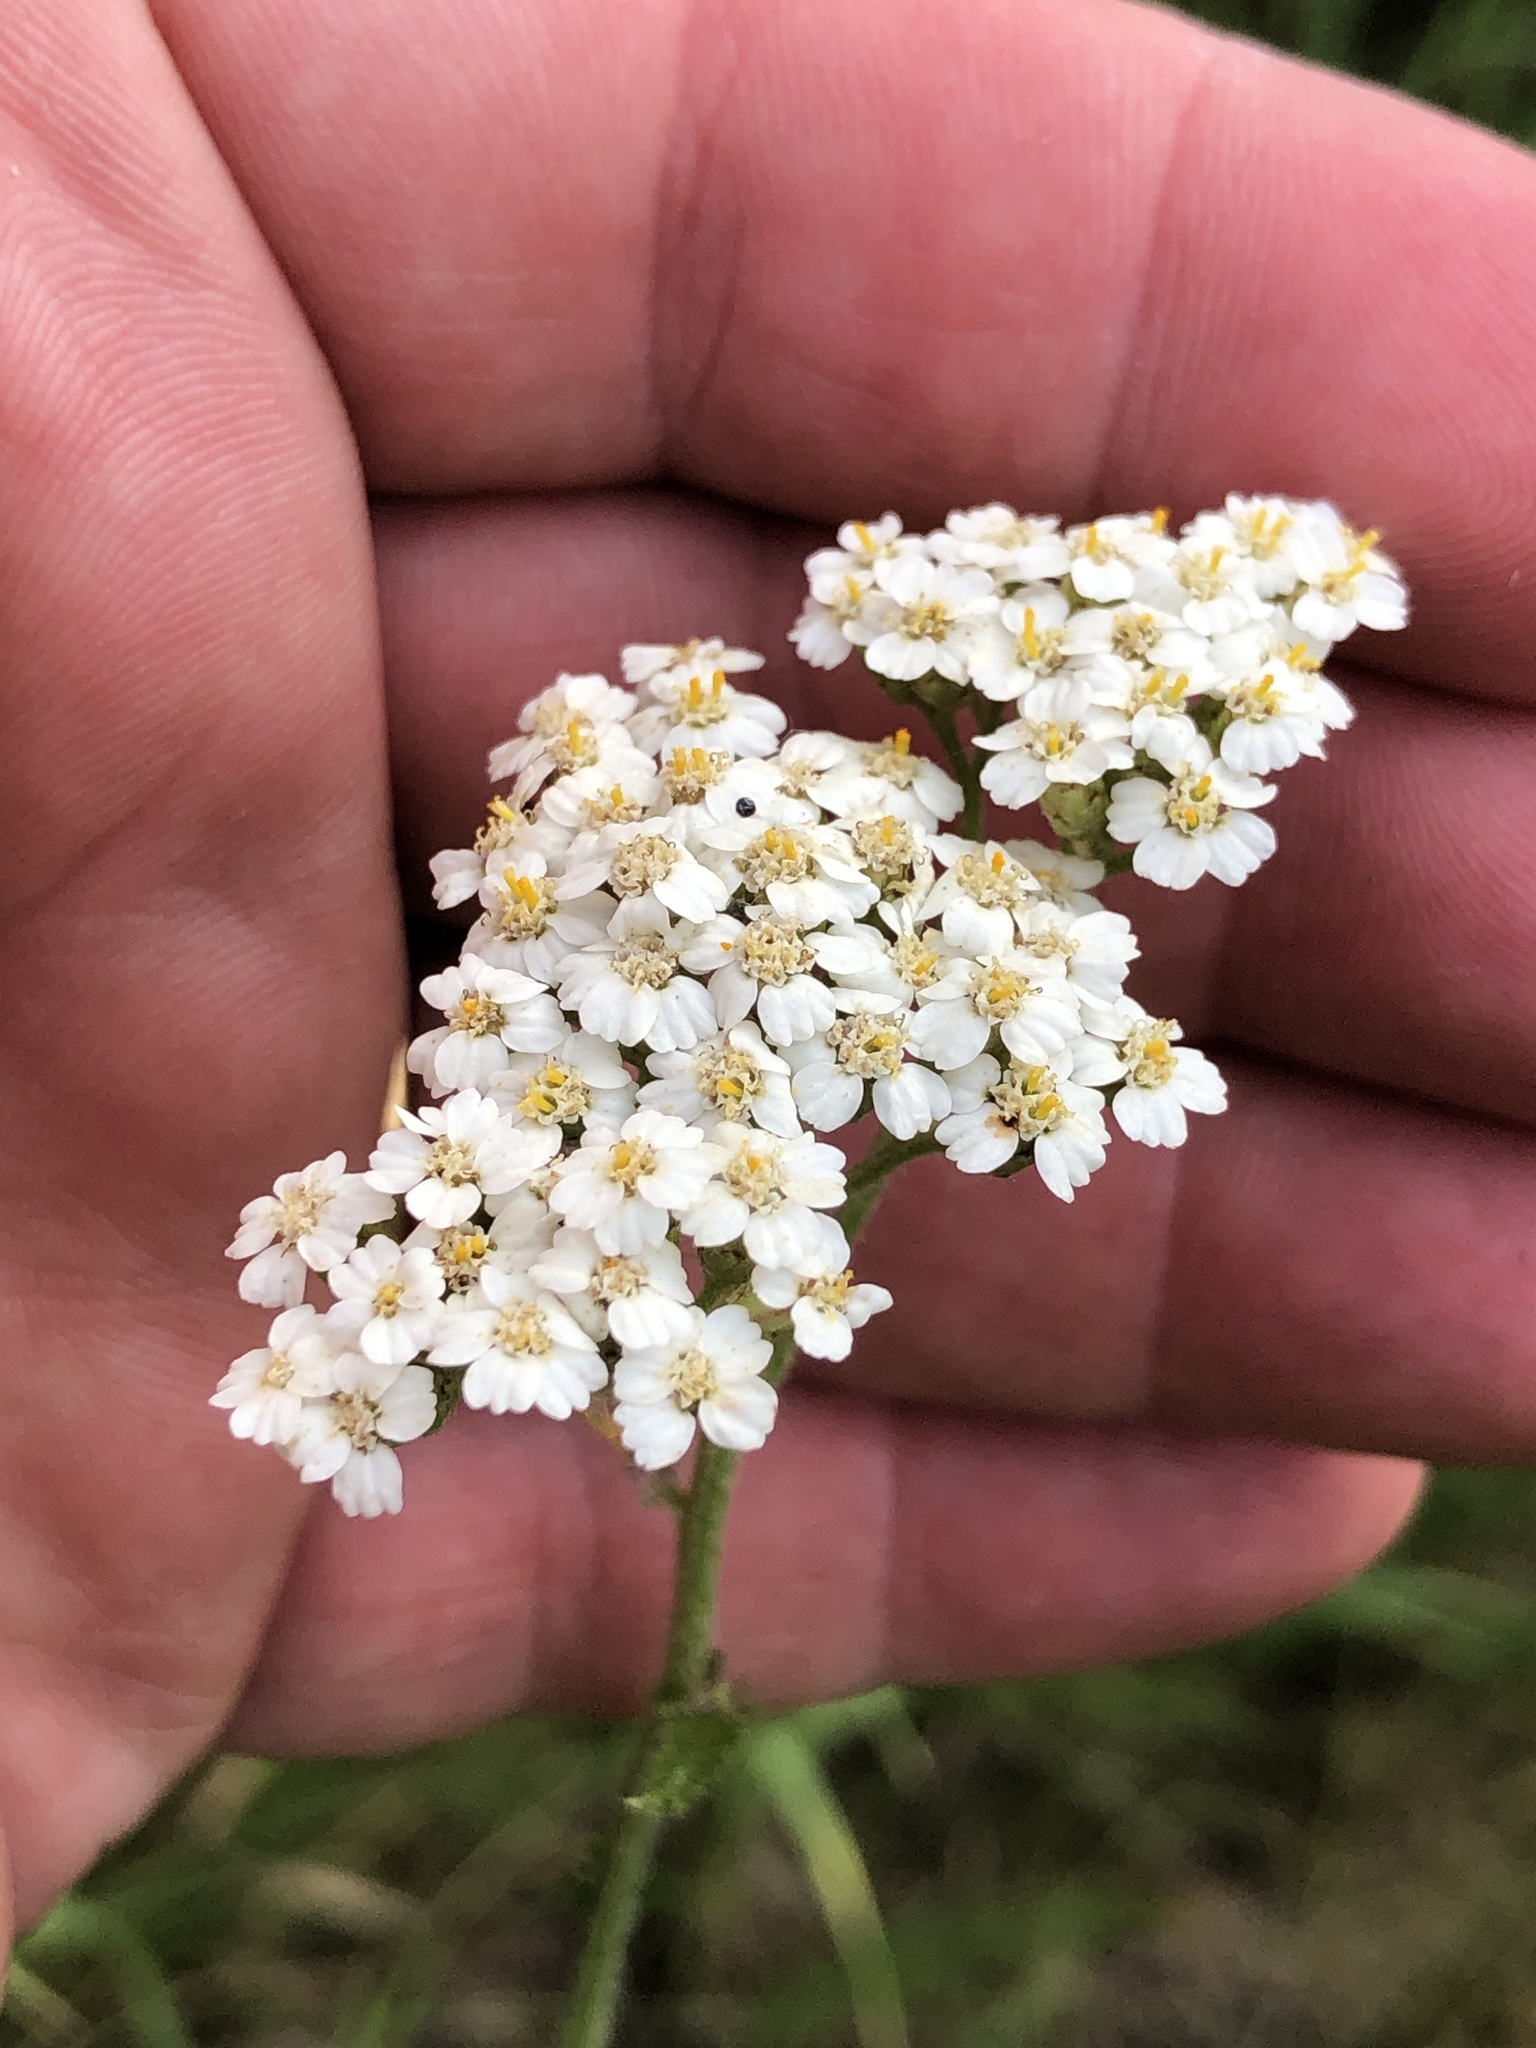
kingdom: Plantae
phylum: Tracheophyta
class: Magnoliopsida
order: Asterales
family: Asteraceae
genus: Achillea
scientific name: Achillea millefolium
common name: Yarrow
